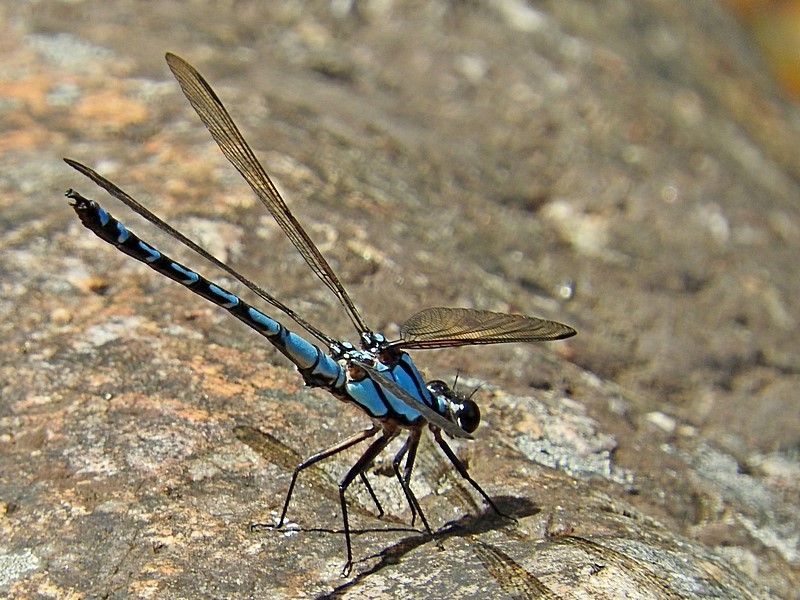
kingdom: Animalia
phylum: Arthropoda
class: Insecta
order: Odonata
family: Lestoideidae
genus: Diphlebia
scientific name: Diphlebia nymphoides
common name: Arrowhead rockmaster
